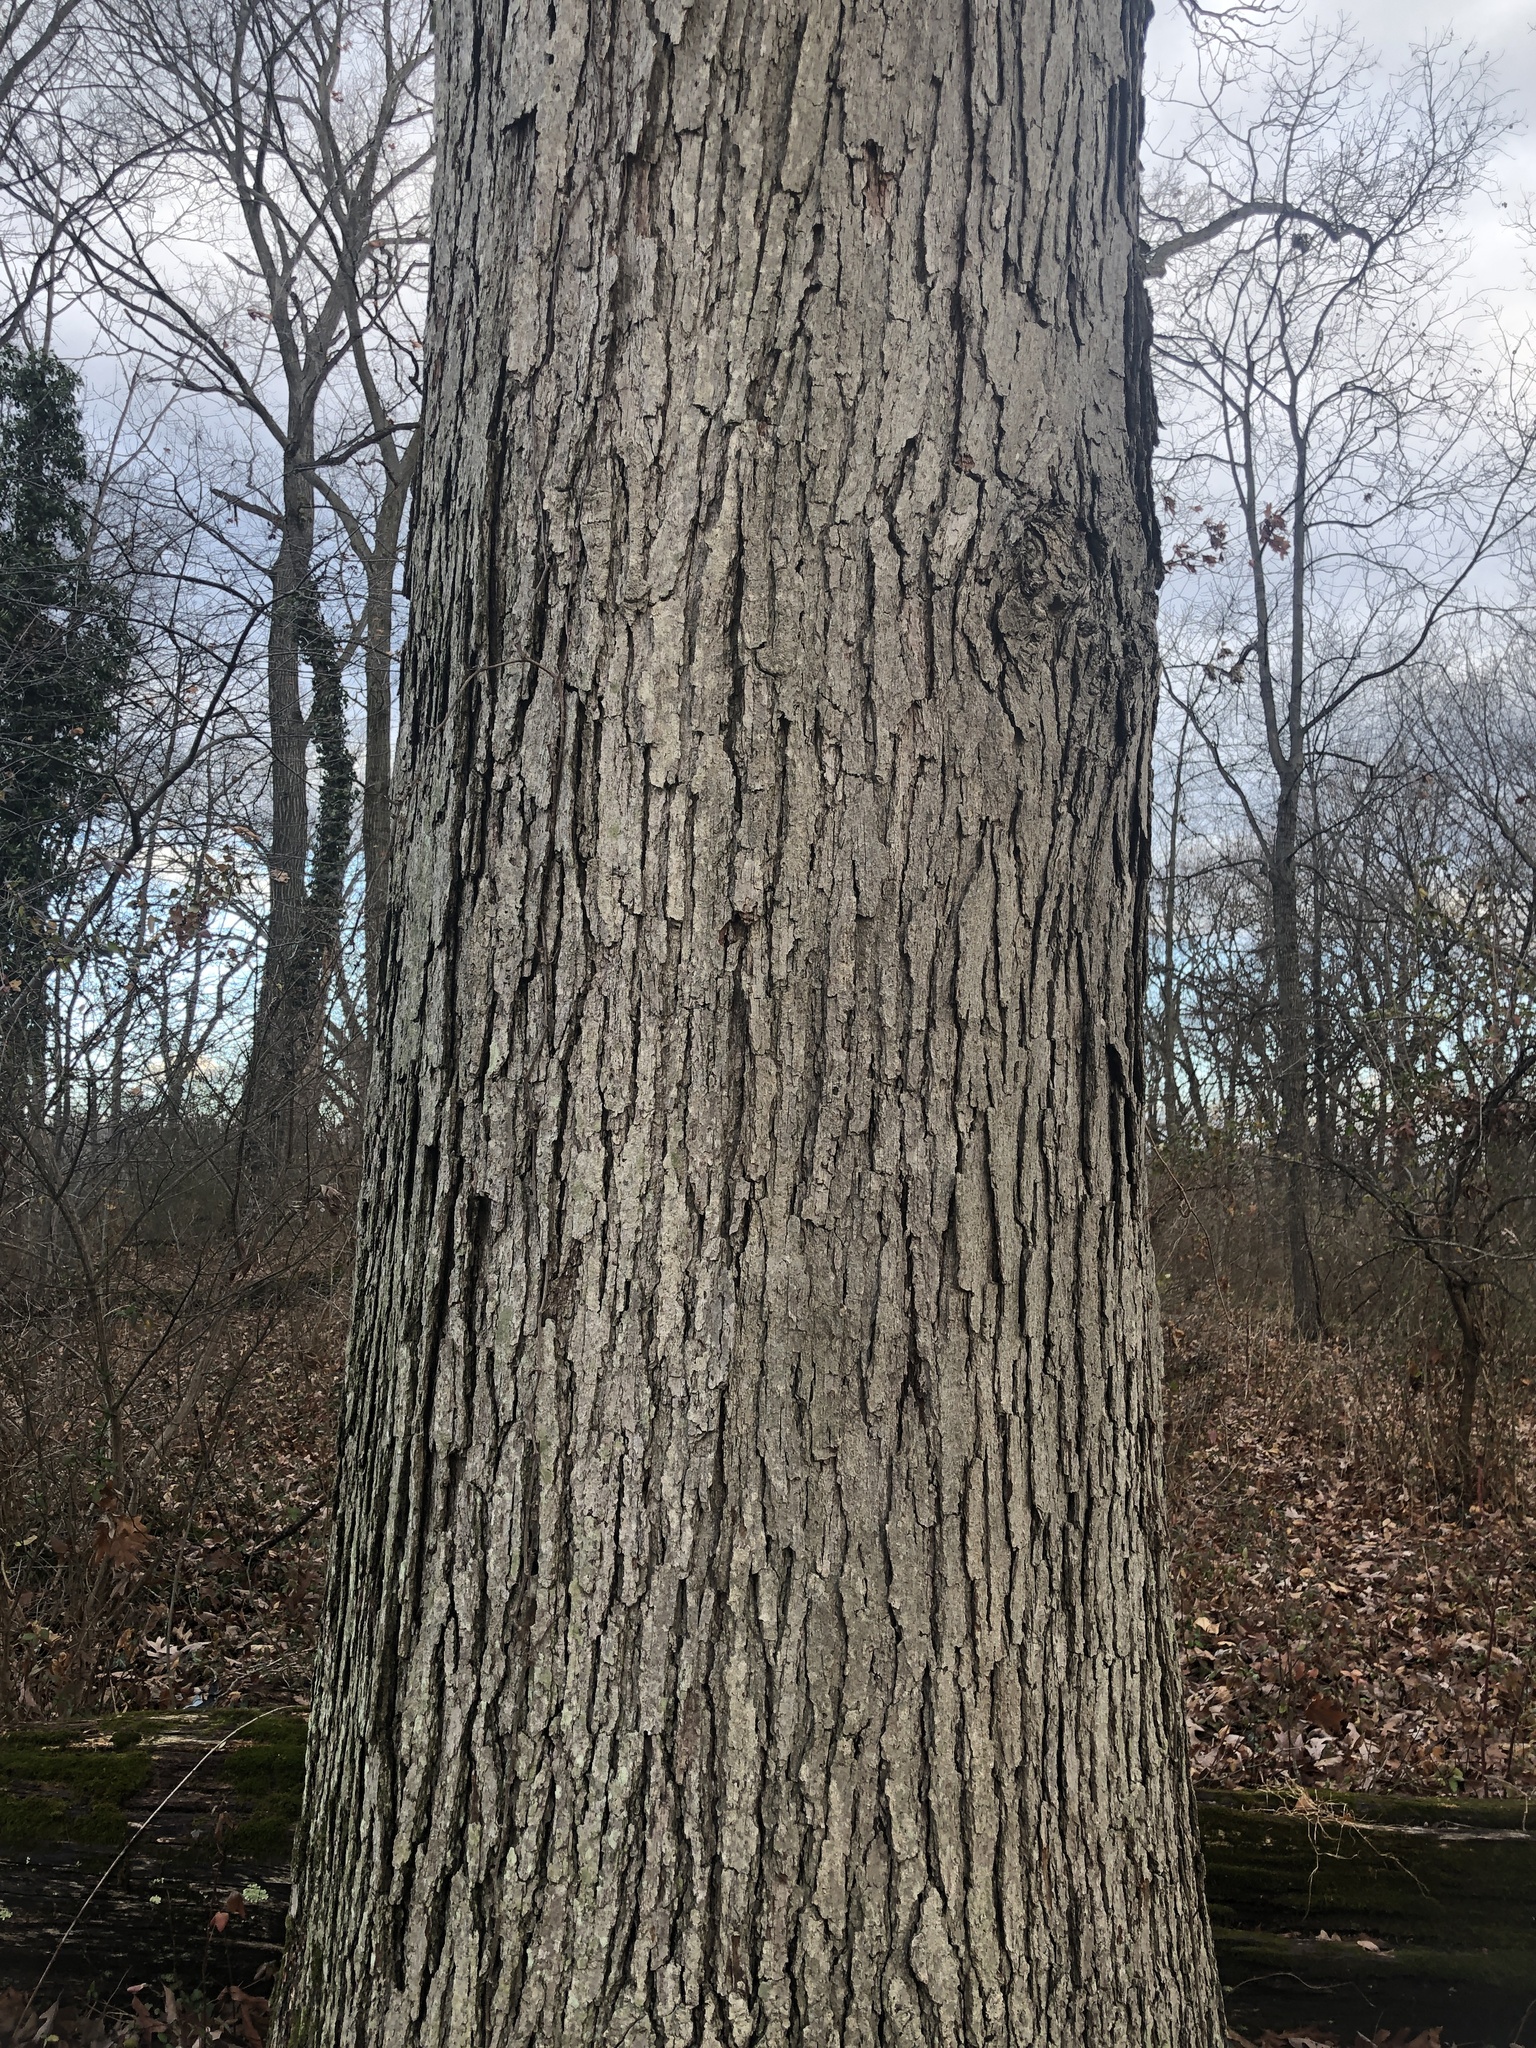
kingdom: Plantae
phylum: Tracheophyta
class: Magnoliopsida
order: Fagales
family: Fagaceae
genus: Quercus
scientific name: Quercus alba
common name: White oak
